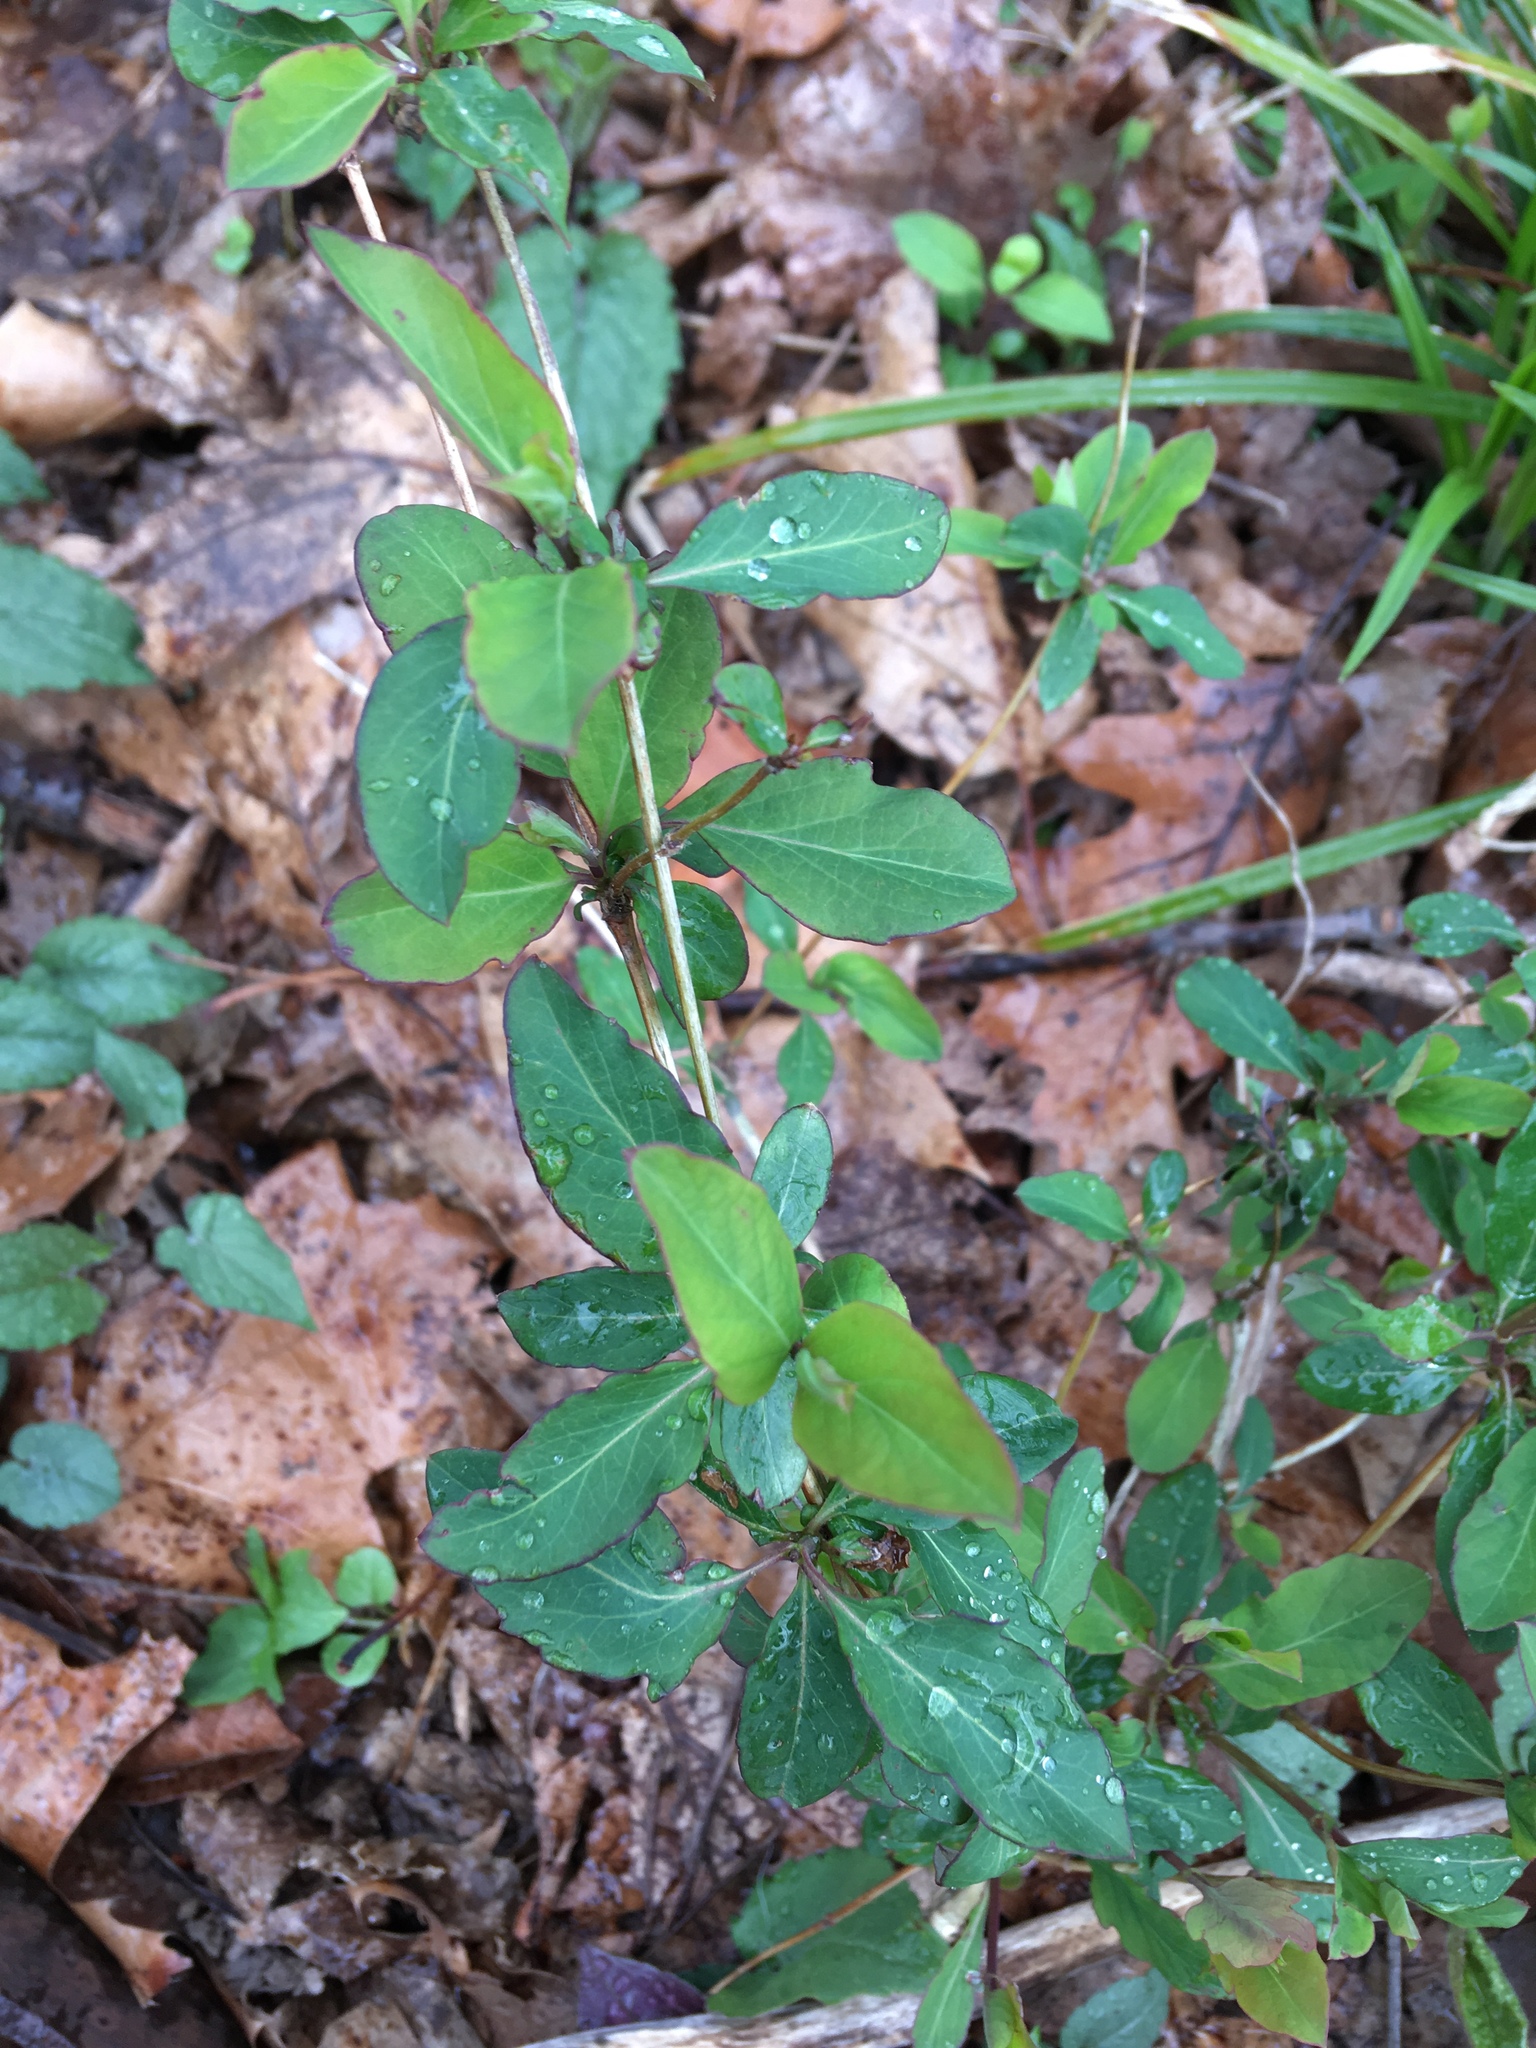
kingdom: Plantae
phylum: Tracheophyta
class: Magnoliopsida
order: Dipsacales
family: Caprifoliaceae
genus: Lonicera
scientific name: Lonicera japonica
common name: Japanese honeysuckle
